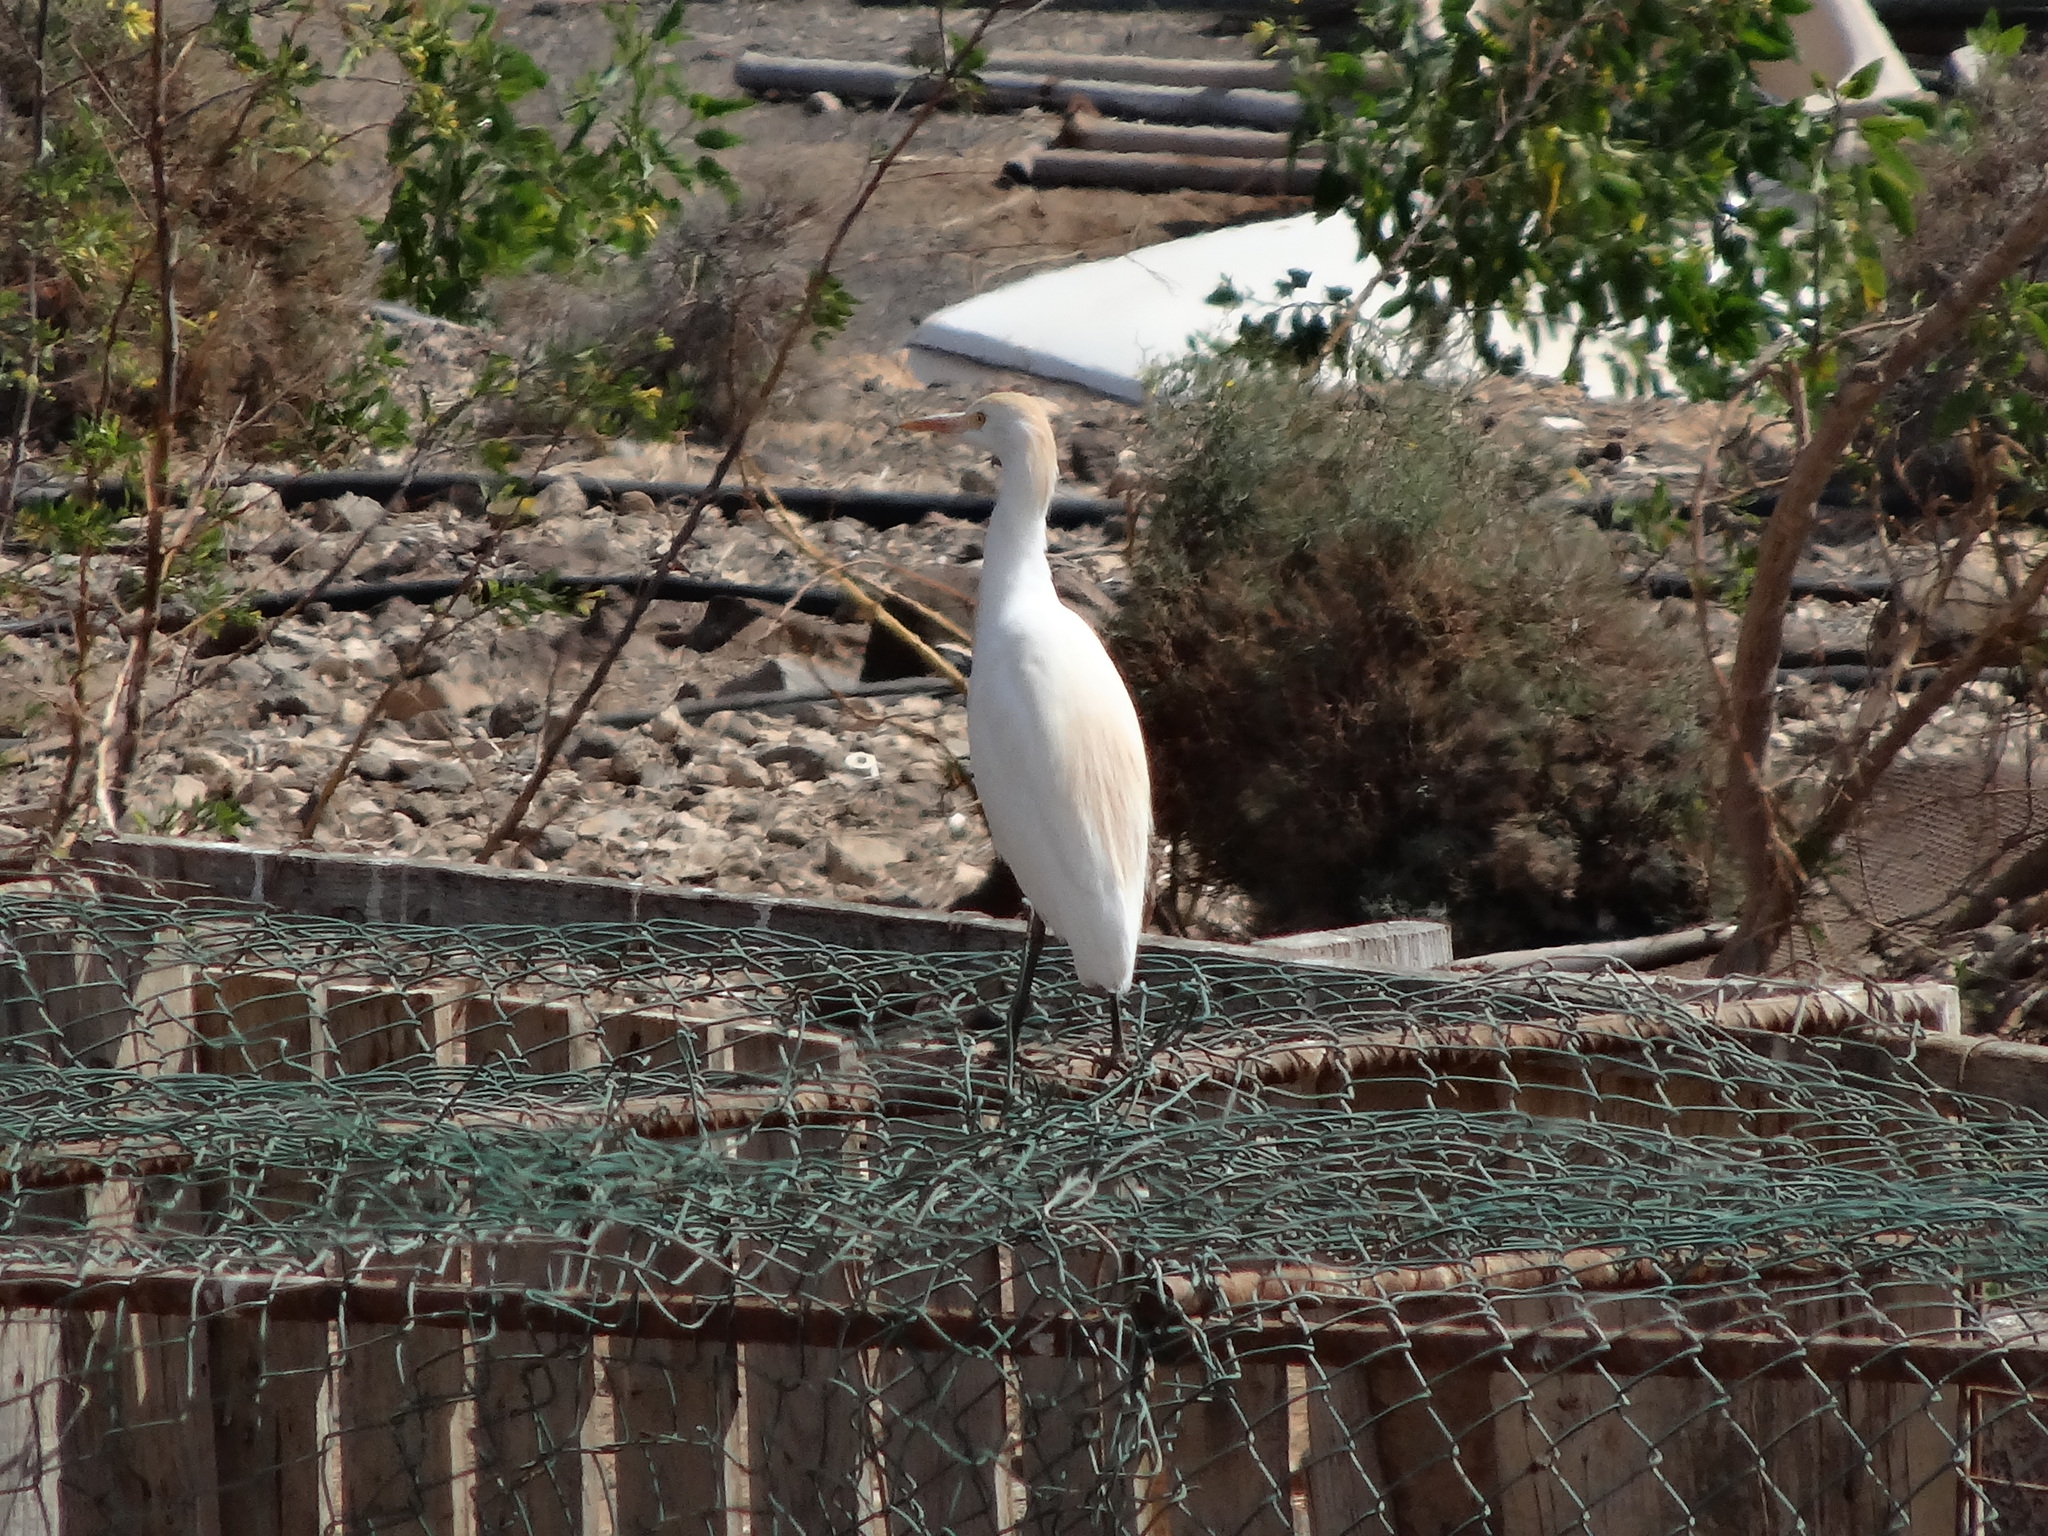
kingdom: Animalia
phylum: Chordata
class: Aves
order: Pelecaniformes
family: Ardeidae
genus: Bubulcus
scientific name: Bubulcus ibis
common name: Cattle egret
